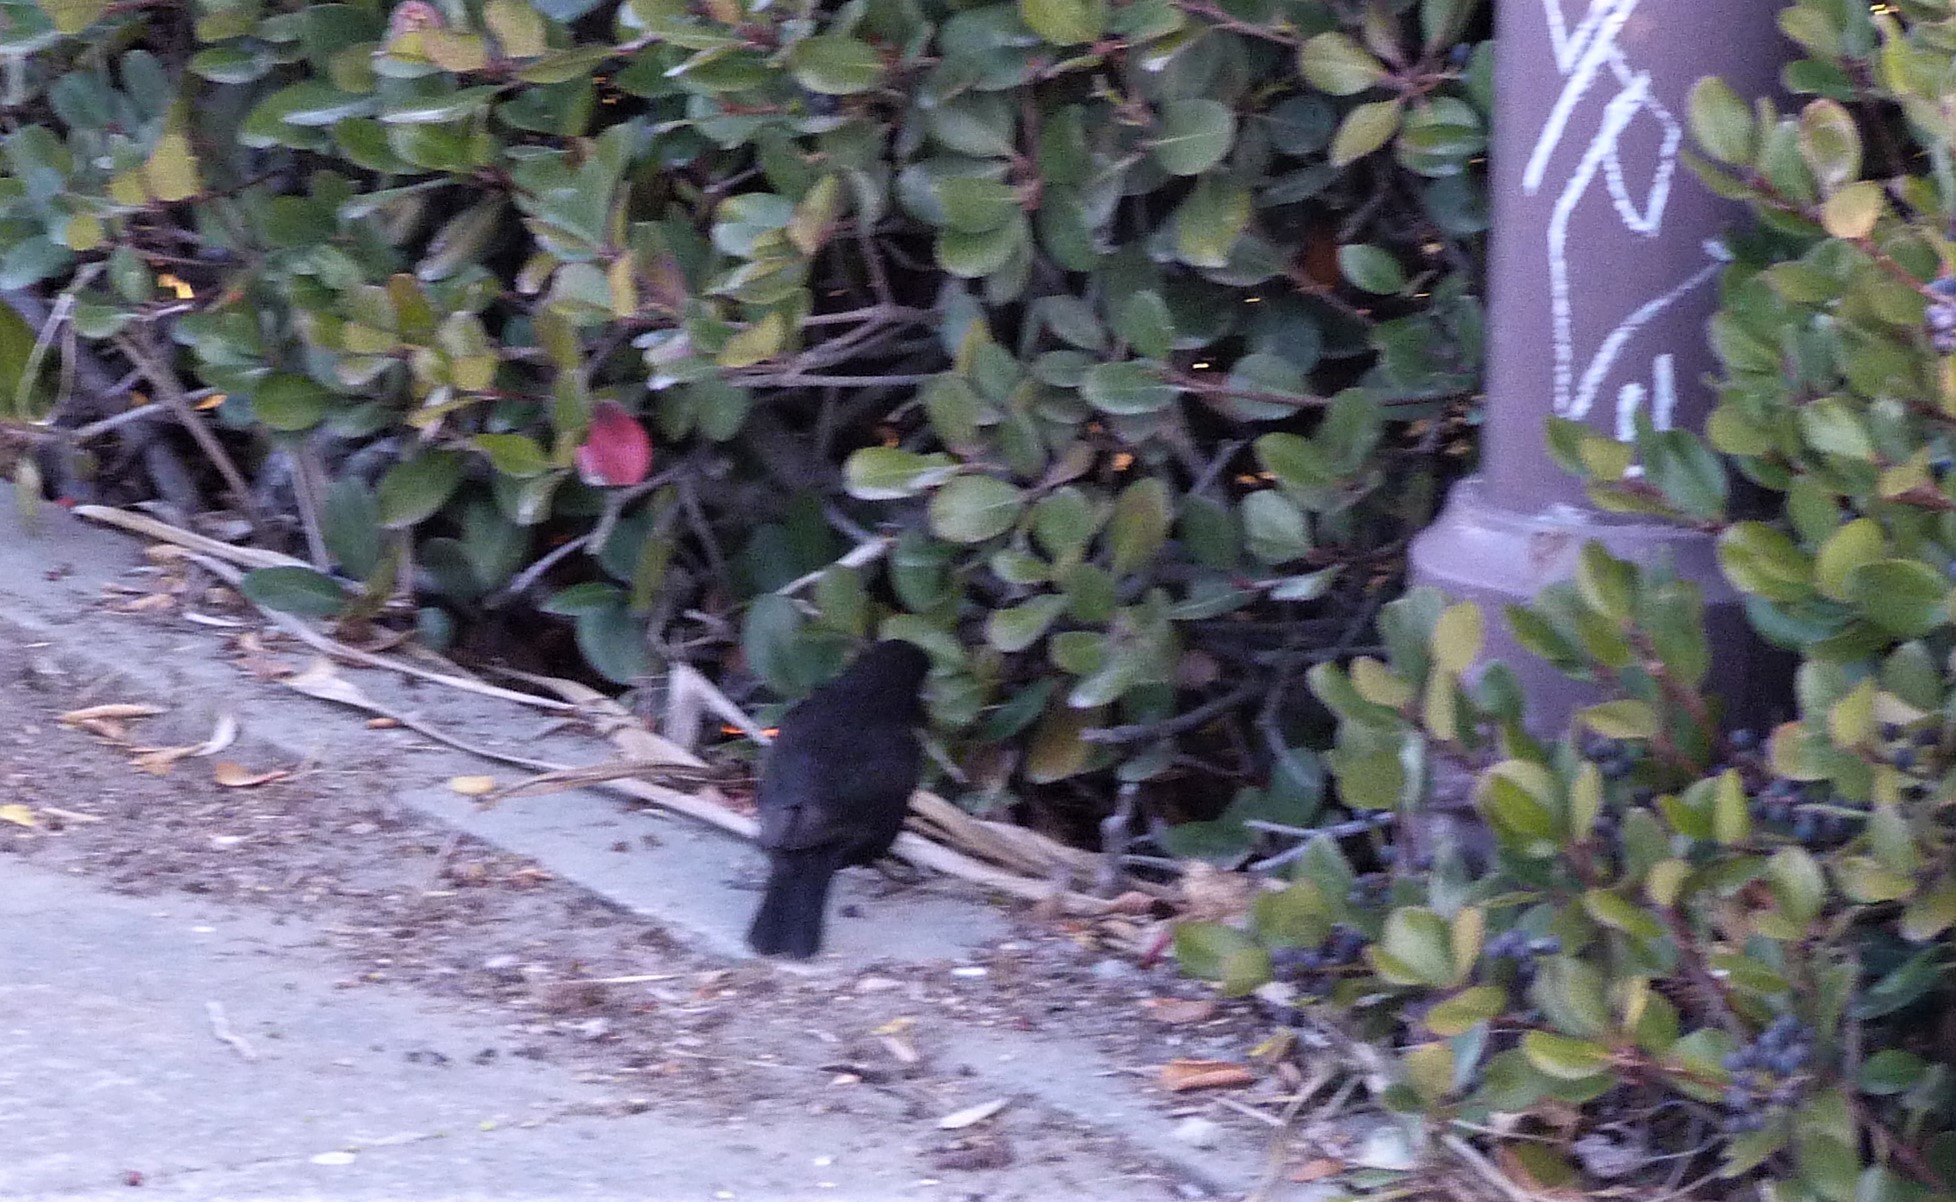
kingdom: Animalia
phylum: Chordata
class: Aves
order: Passeriformes
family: Turdidae
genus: Turdus
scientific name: Turdus merula
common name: Common blackbird
